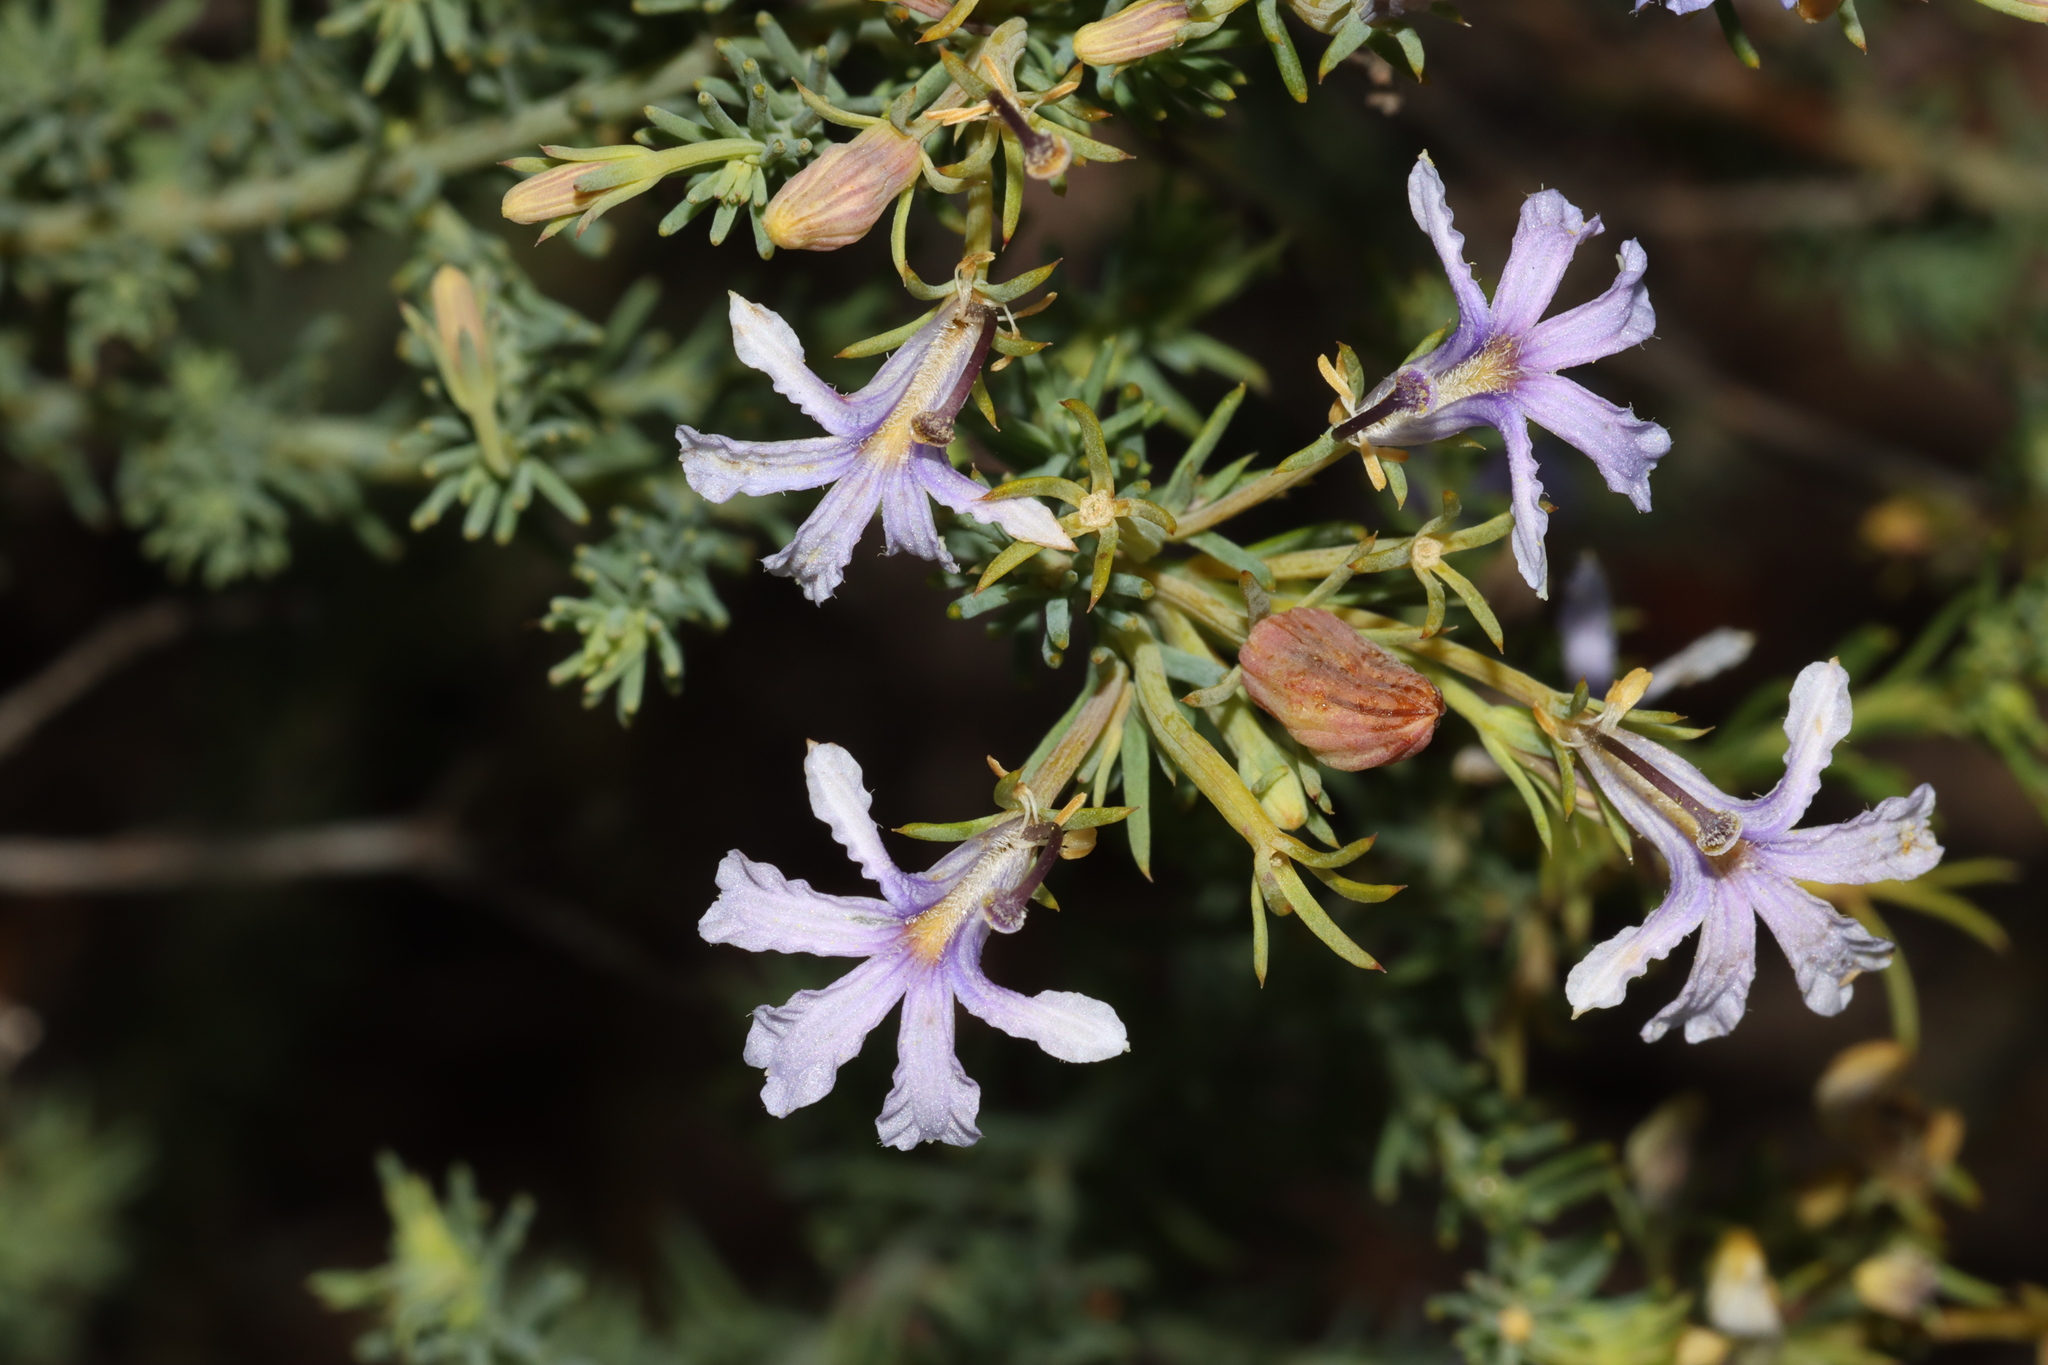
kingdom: Plantae
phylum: Tracheophyta
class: Magnoliopsida
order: Asterales
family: Goodeniaceae
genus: Lechenaultia
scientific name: Lechenaultia floribunda
